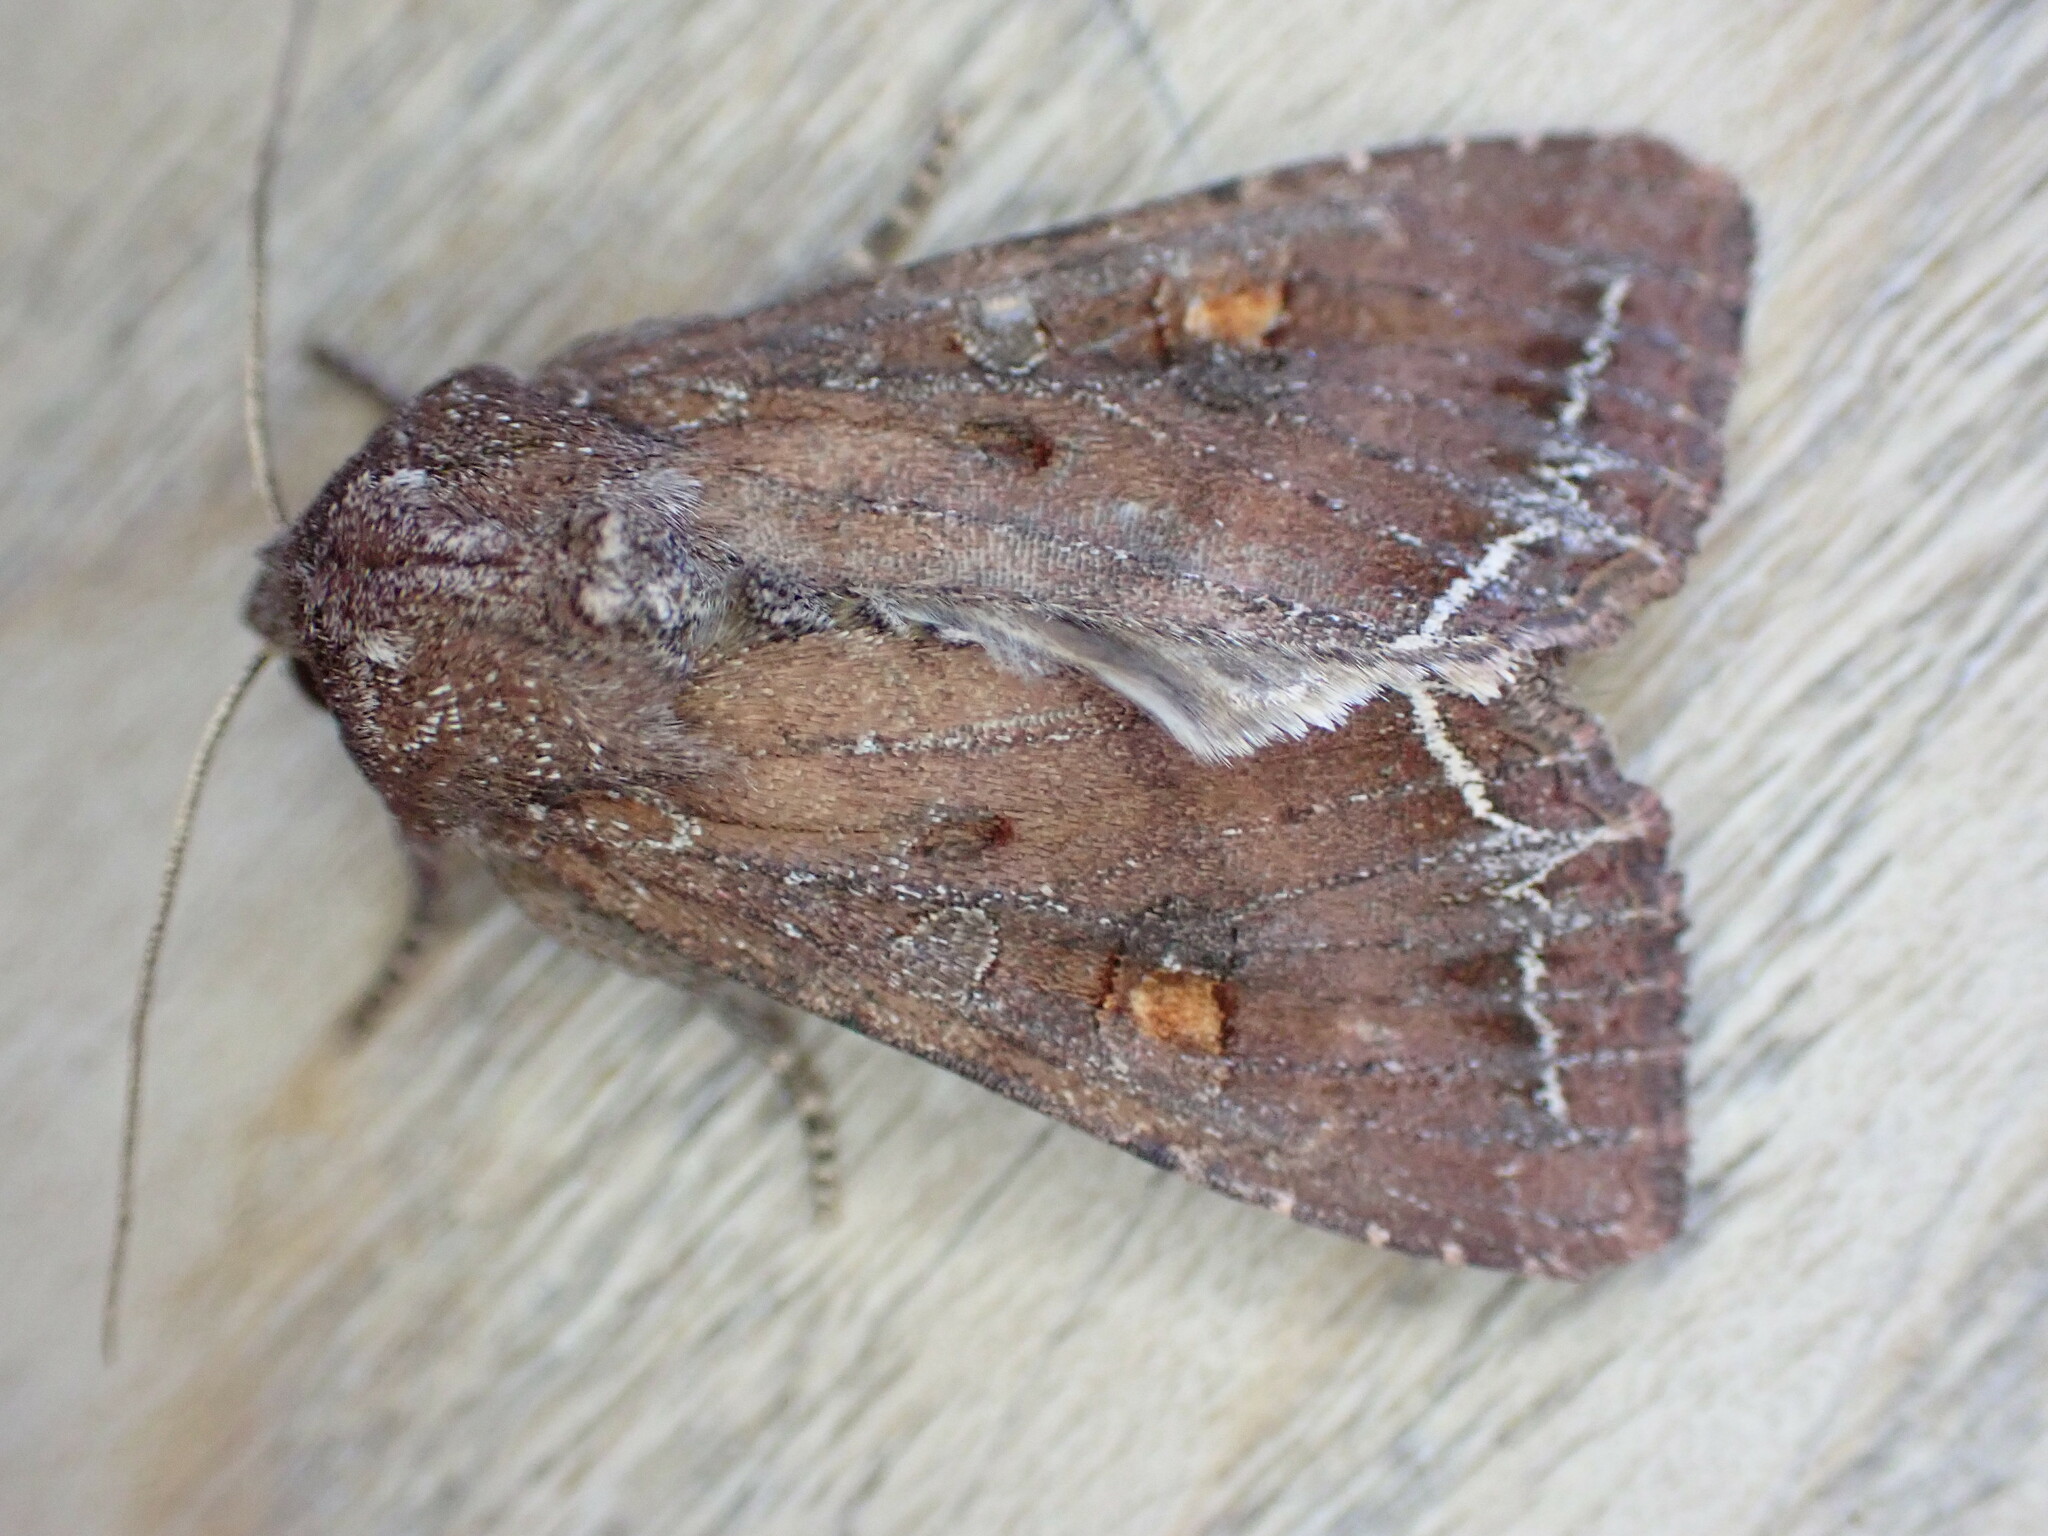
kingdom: Animalia
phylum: Arthropoda
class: Insecta
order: Lepidoptera
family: Noctuidae
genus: Lacanobia
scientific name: Lacanobia oleracea
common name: Bright-line brown-eye
